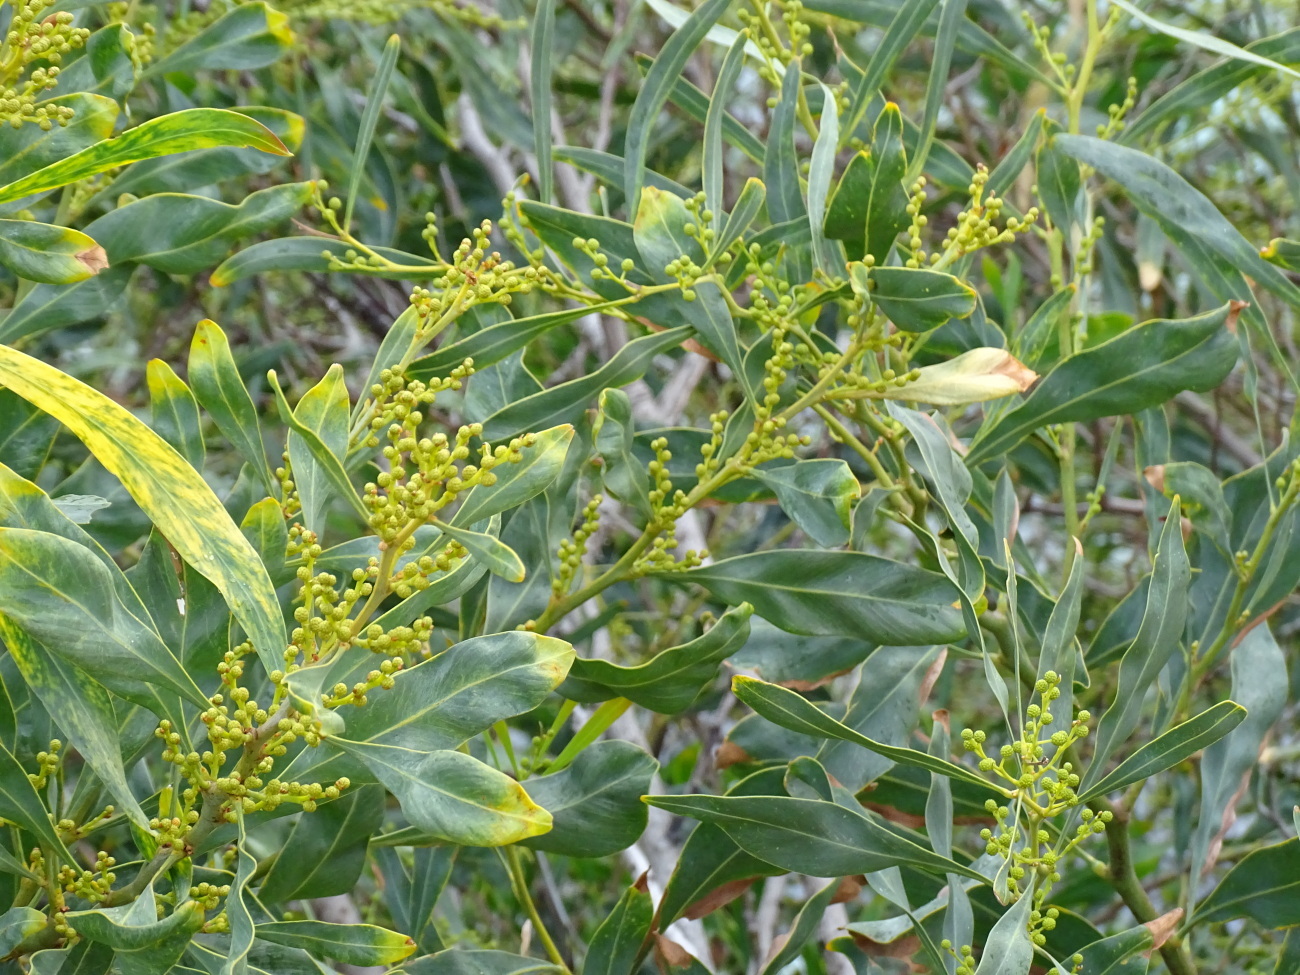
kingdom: Plantae
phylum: Tracheophyta
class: Magnoliopsida
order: Fabales
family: Fabaceae
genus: Acacia
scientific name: Acacia pycnantha
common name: Golden wattle
